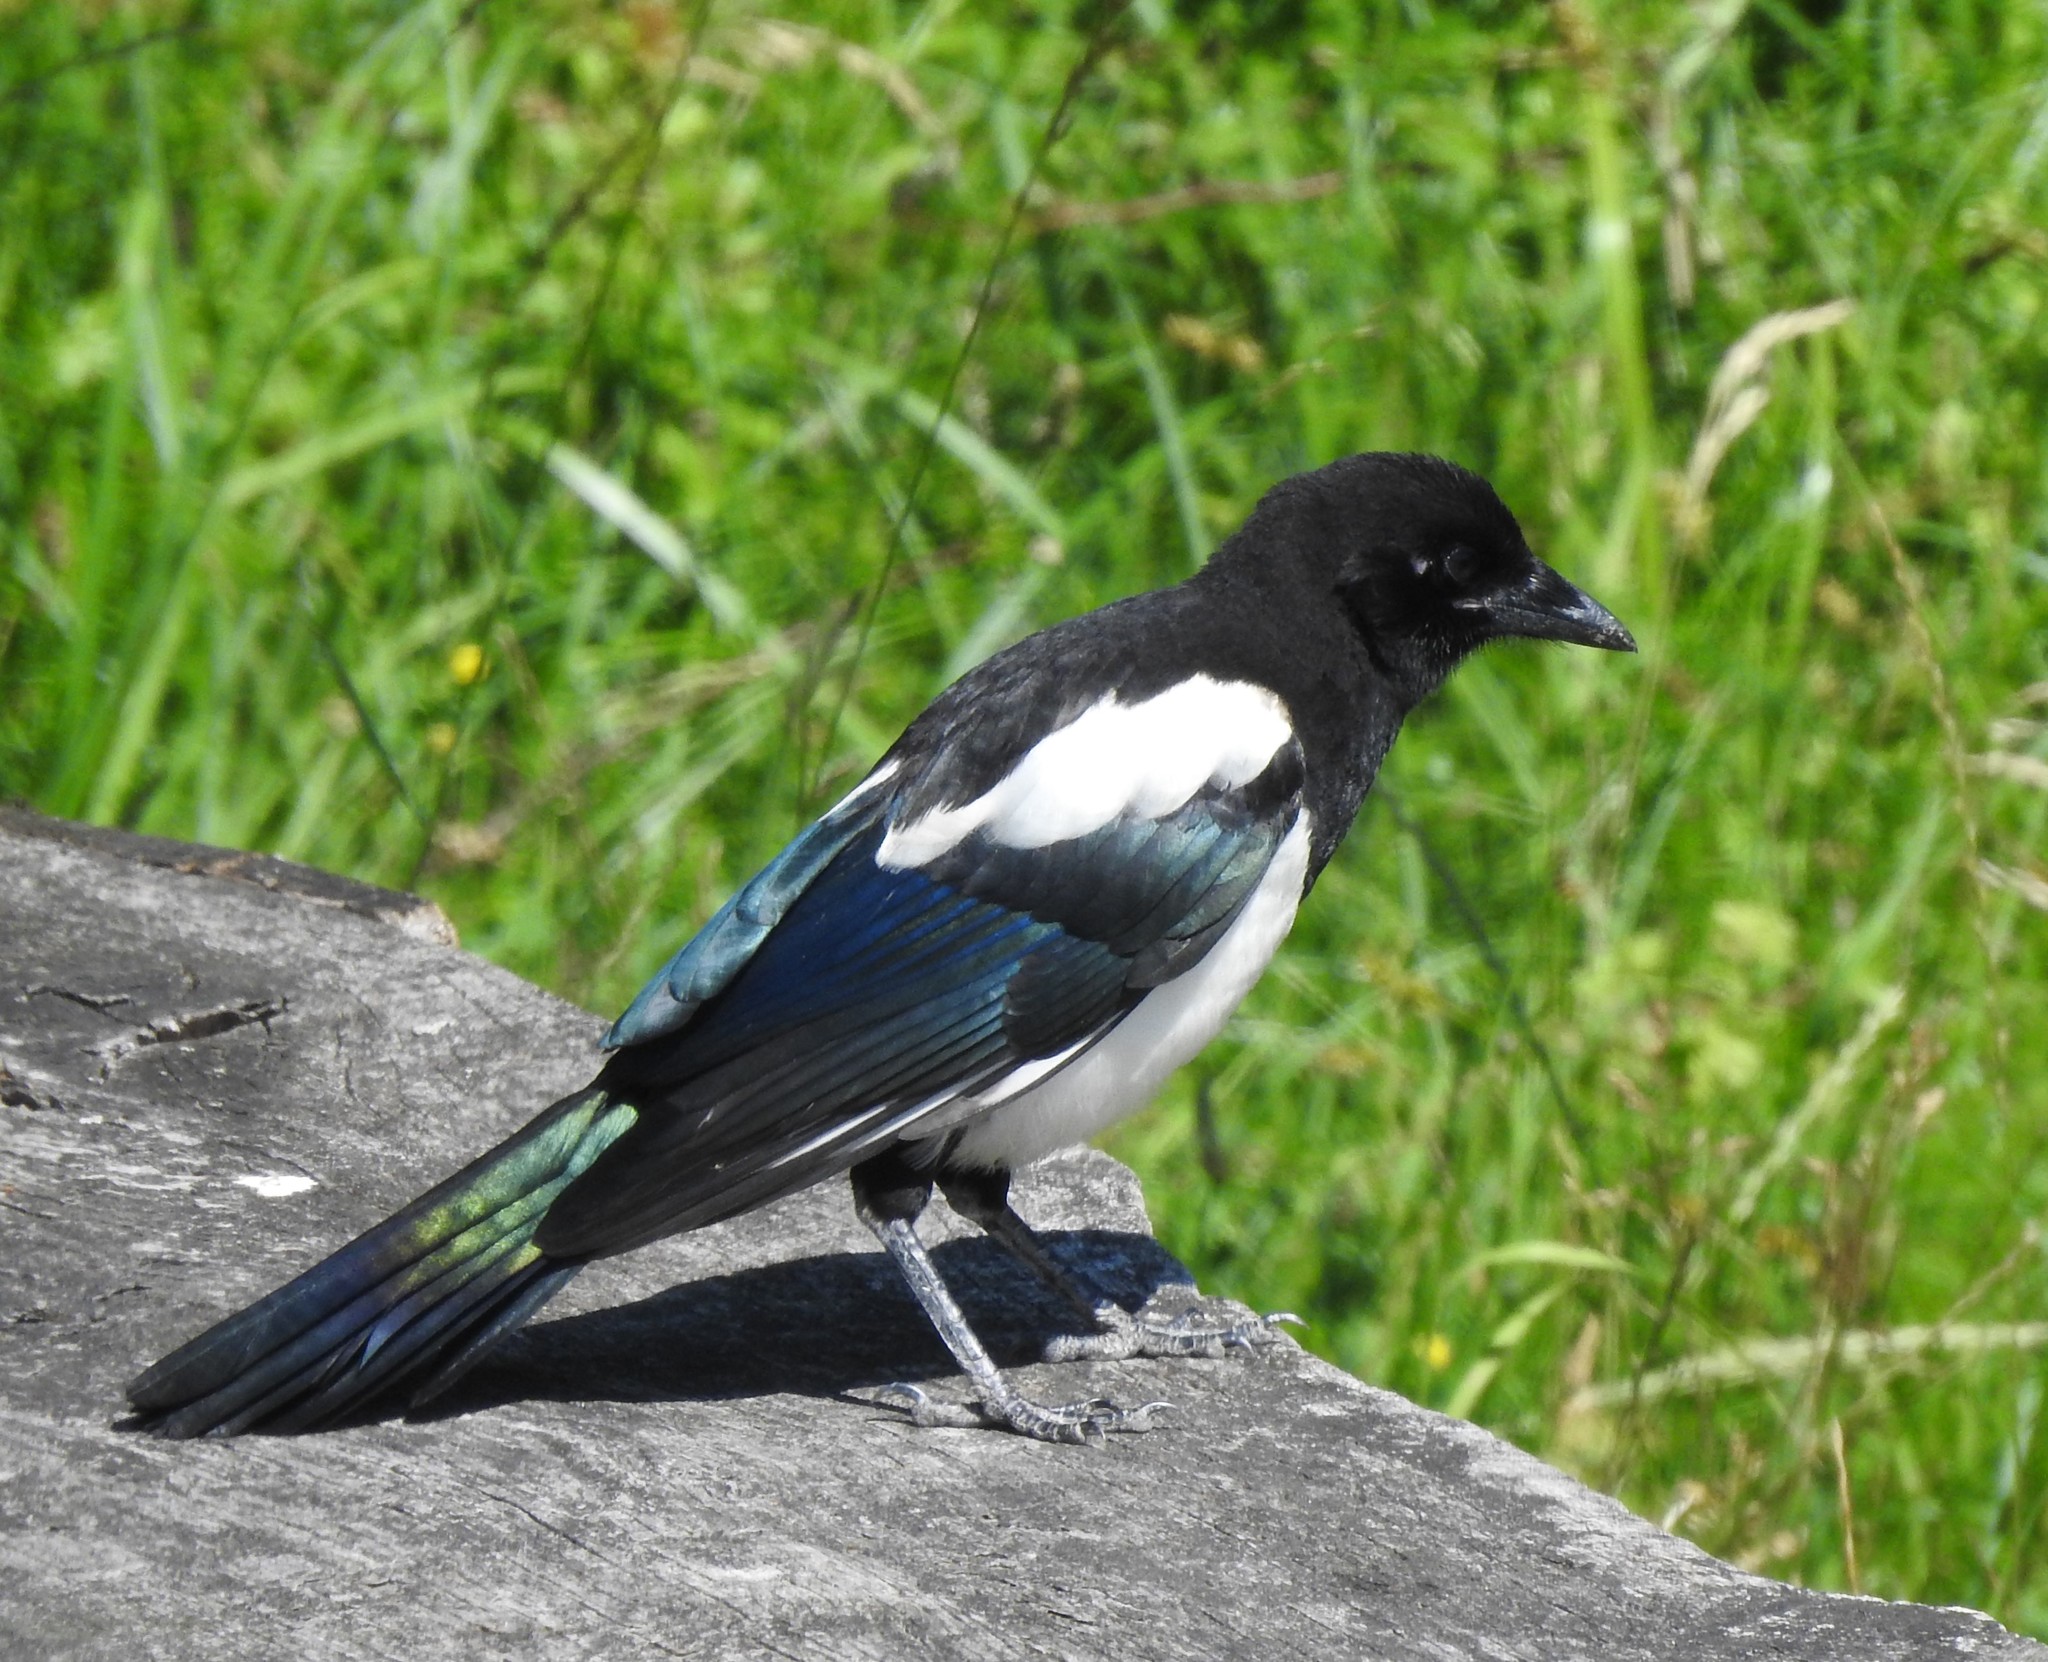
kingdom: Animalia
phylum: Chordata
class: Aves
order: Passeriformes
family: Corvidae
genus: Pica
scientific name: Pica pica
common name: Eurasian magpie
